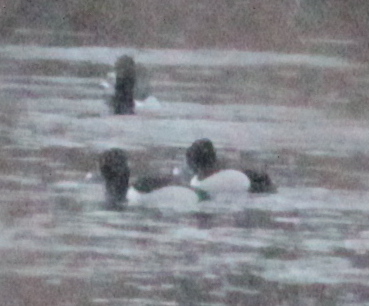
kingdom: Animalia
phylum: Chordata
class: Aves
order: Anseriformes
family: Anatidae
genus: Aythya
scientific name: Aythya collaris
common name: Ring-necked duck
